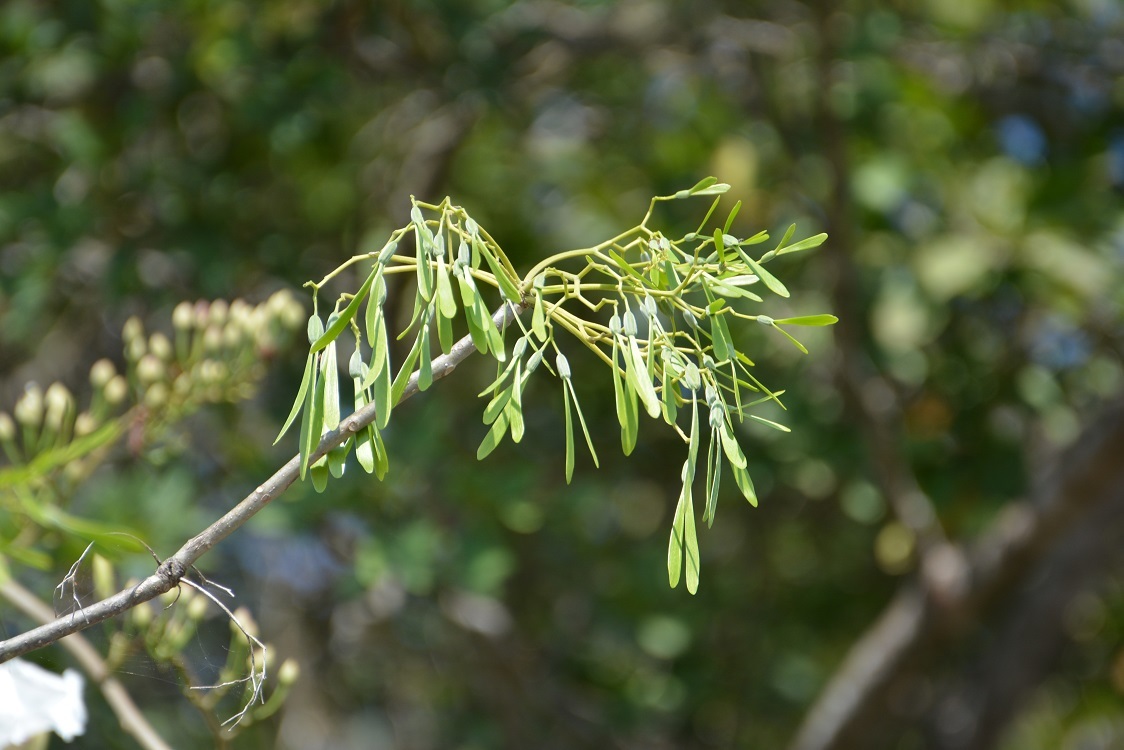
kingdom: Plantae
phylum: Tracheophyta
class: Magnoliopsida
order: Laurales
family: Hernandiaceae
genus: Gyrocarpus
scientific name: Gyrocarpus mocinoi
